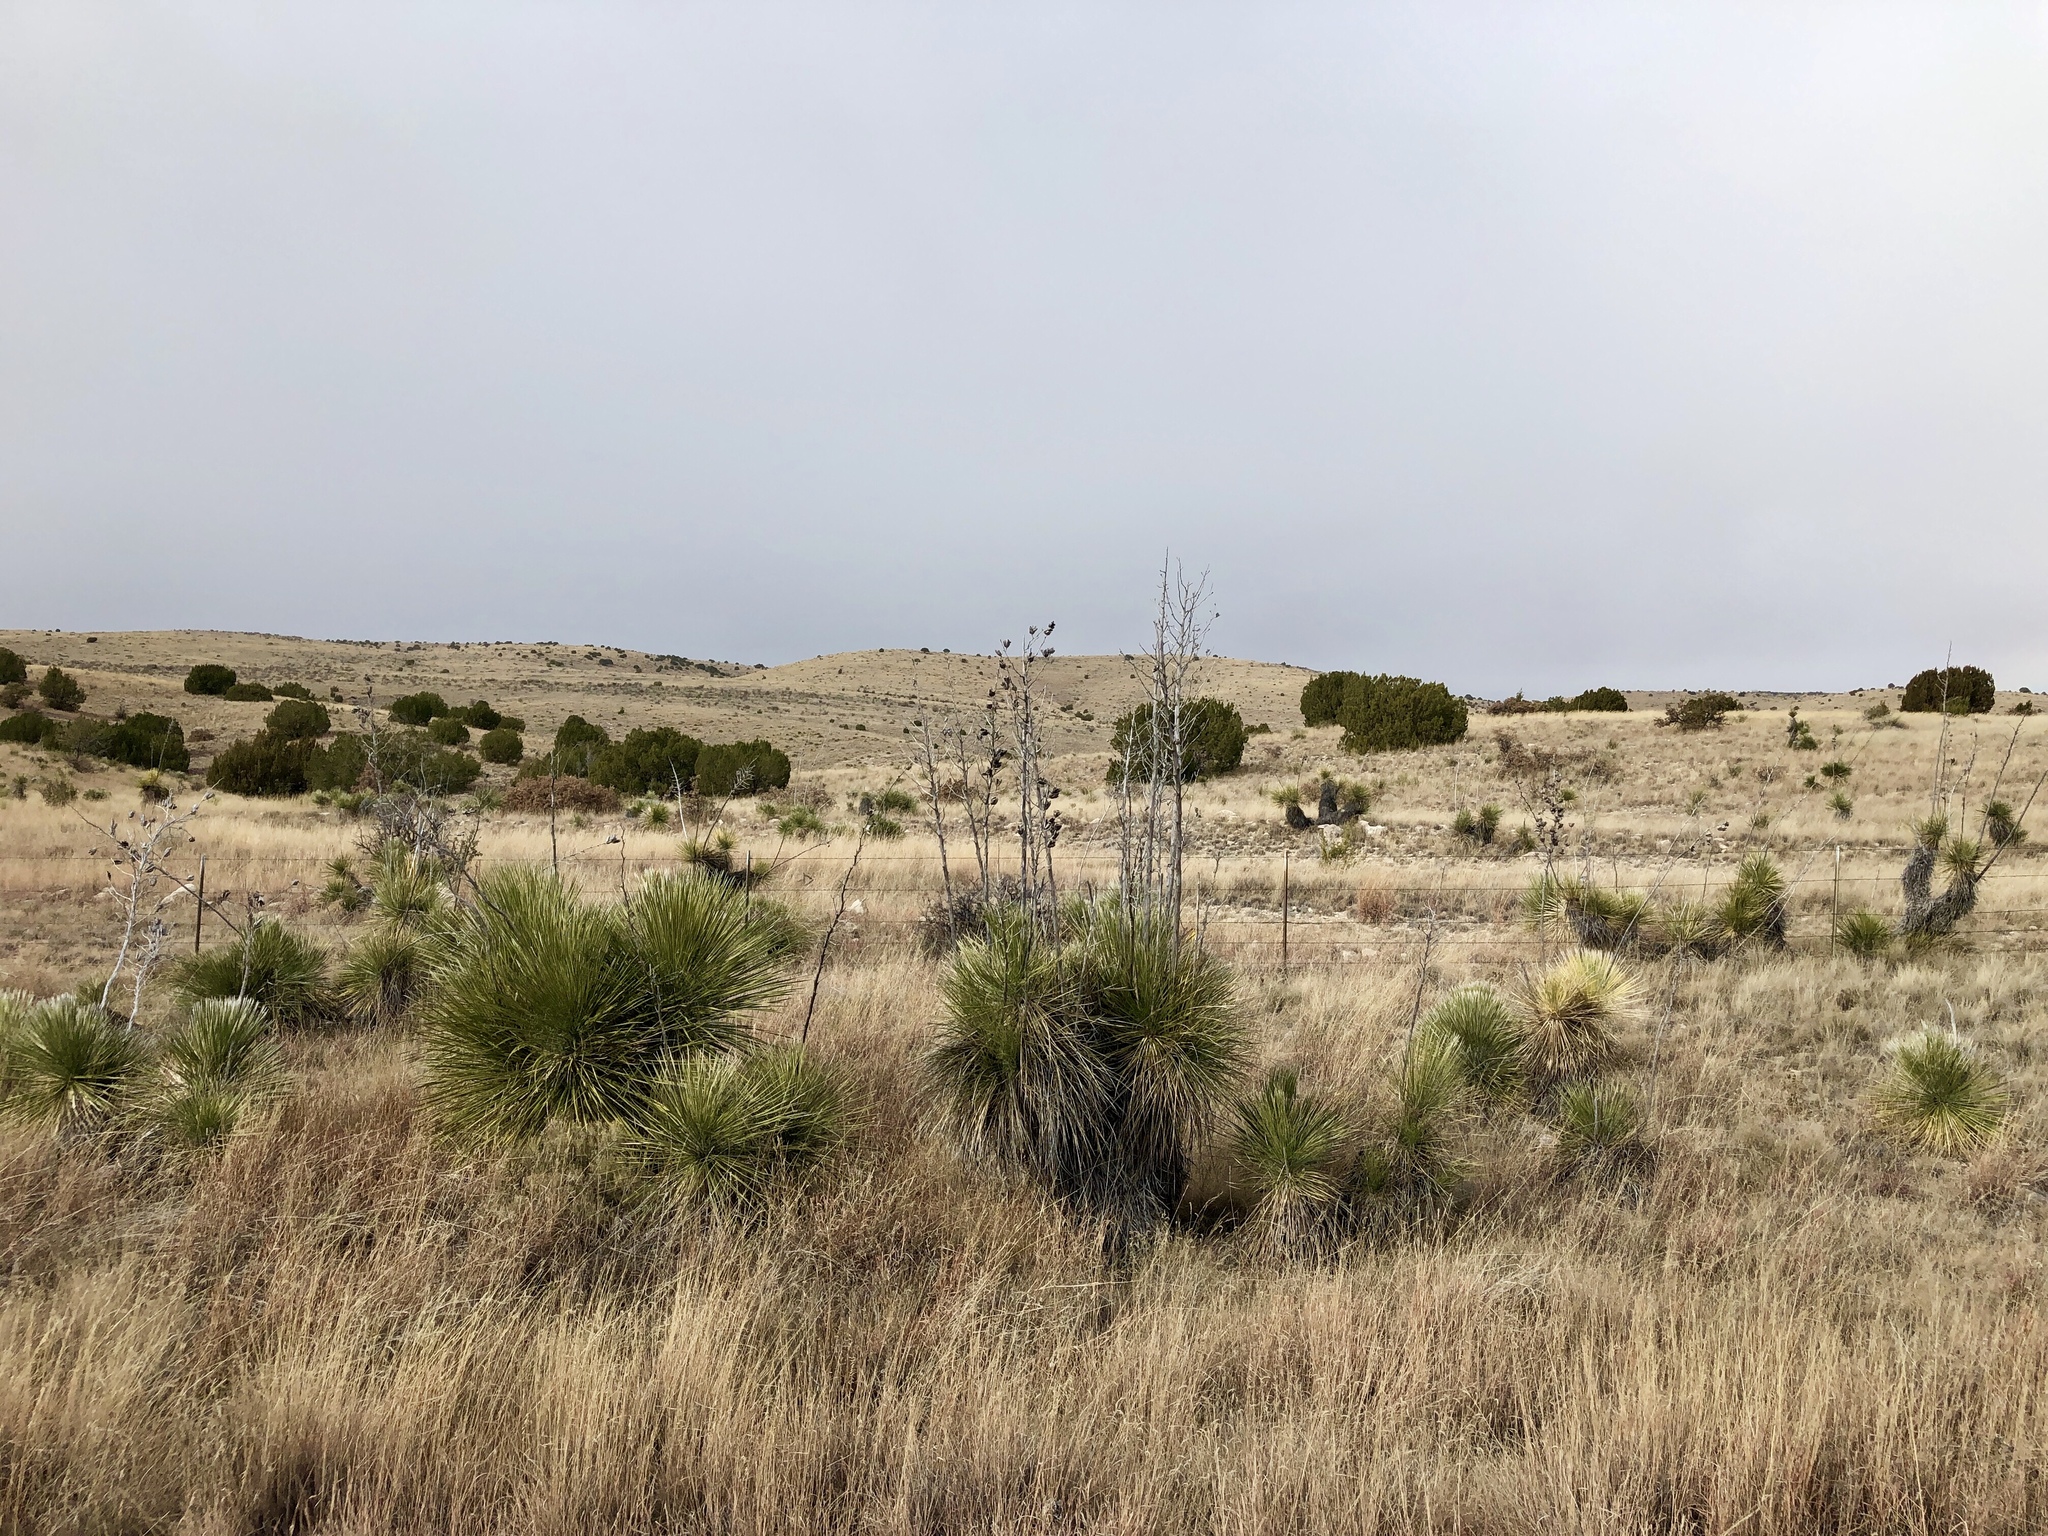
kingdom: Plantae
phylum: Tracheophyta
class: Liliopsida
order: Asparagales
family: Asparagaceae
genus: Yucca
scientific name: Yucca elata
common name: Palmella
